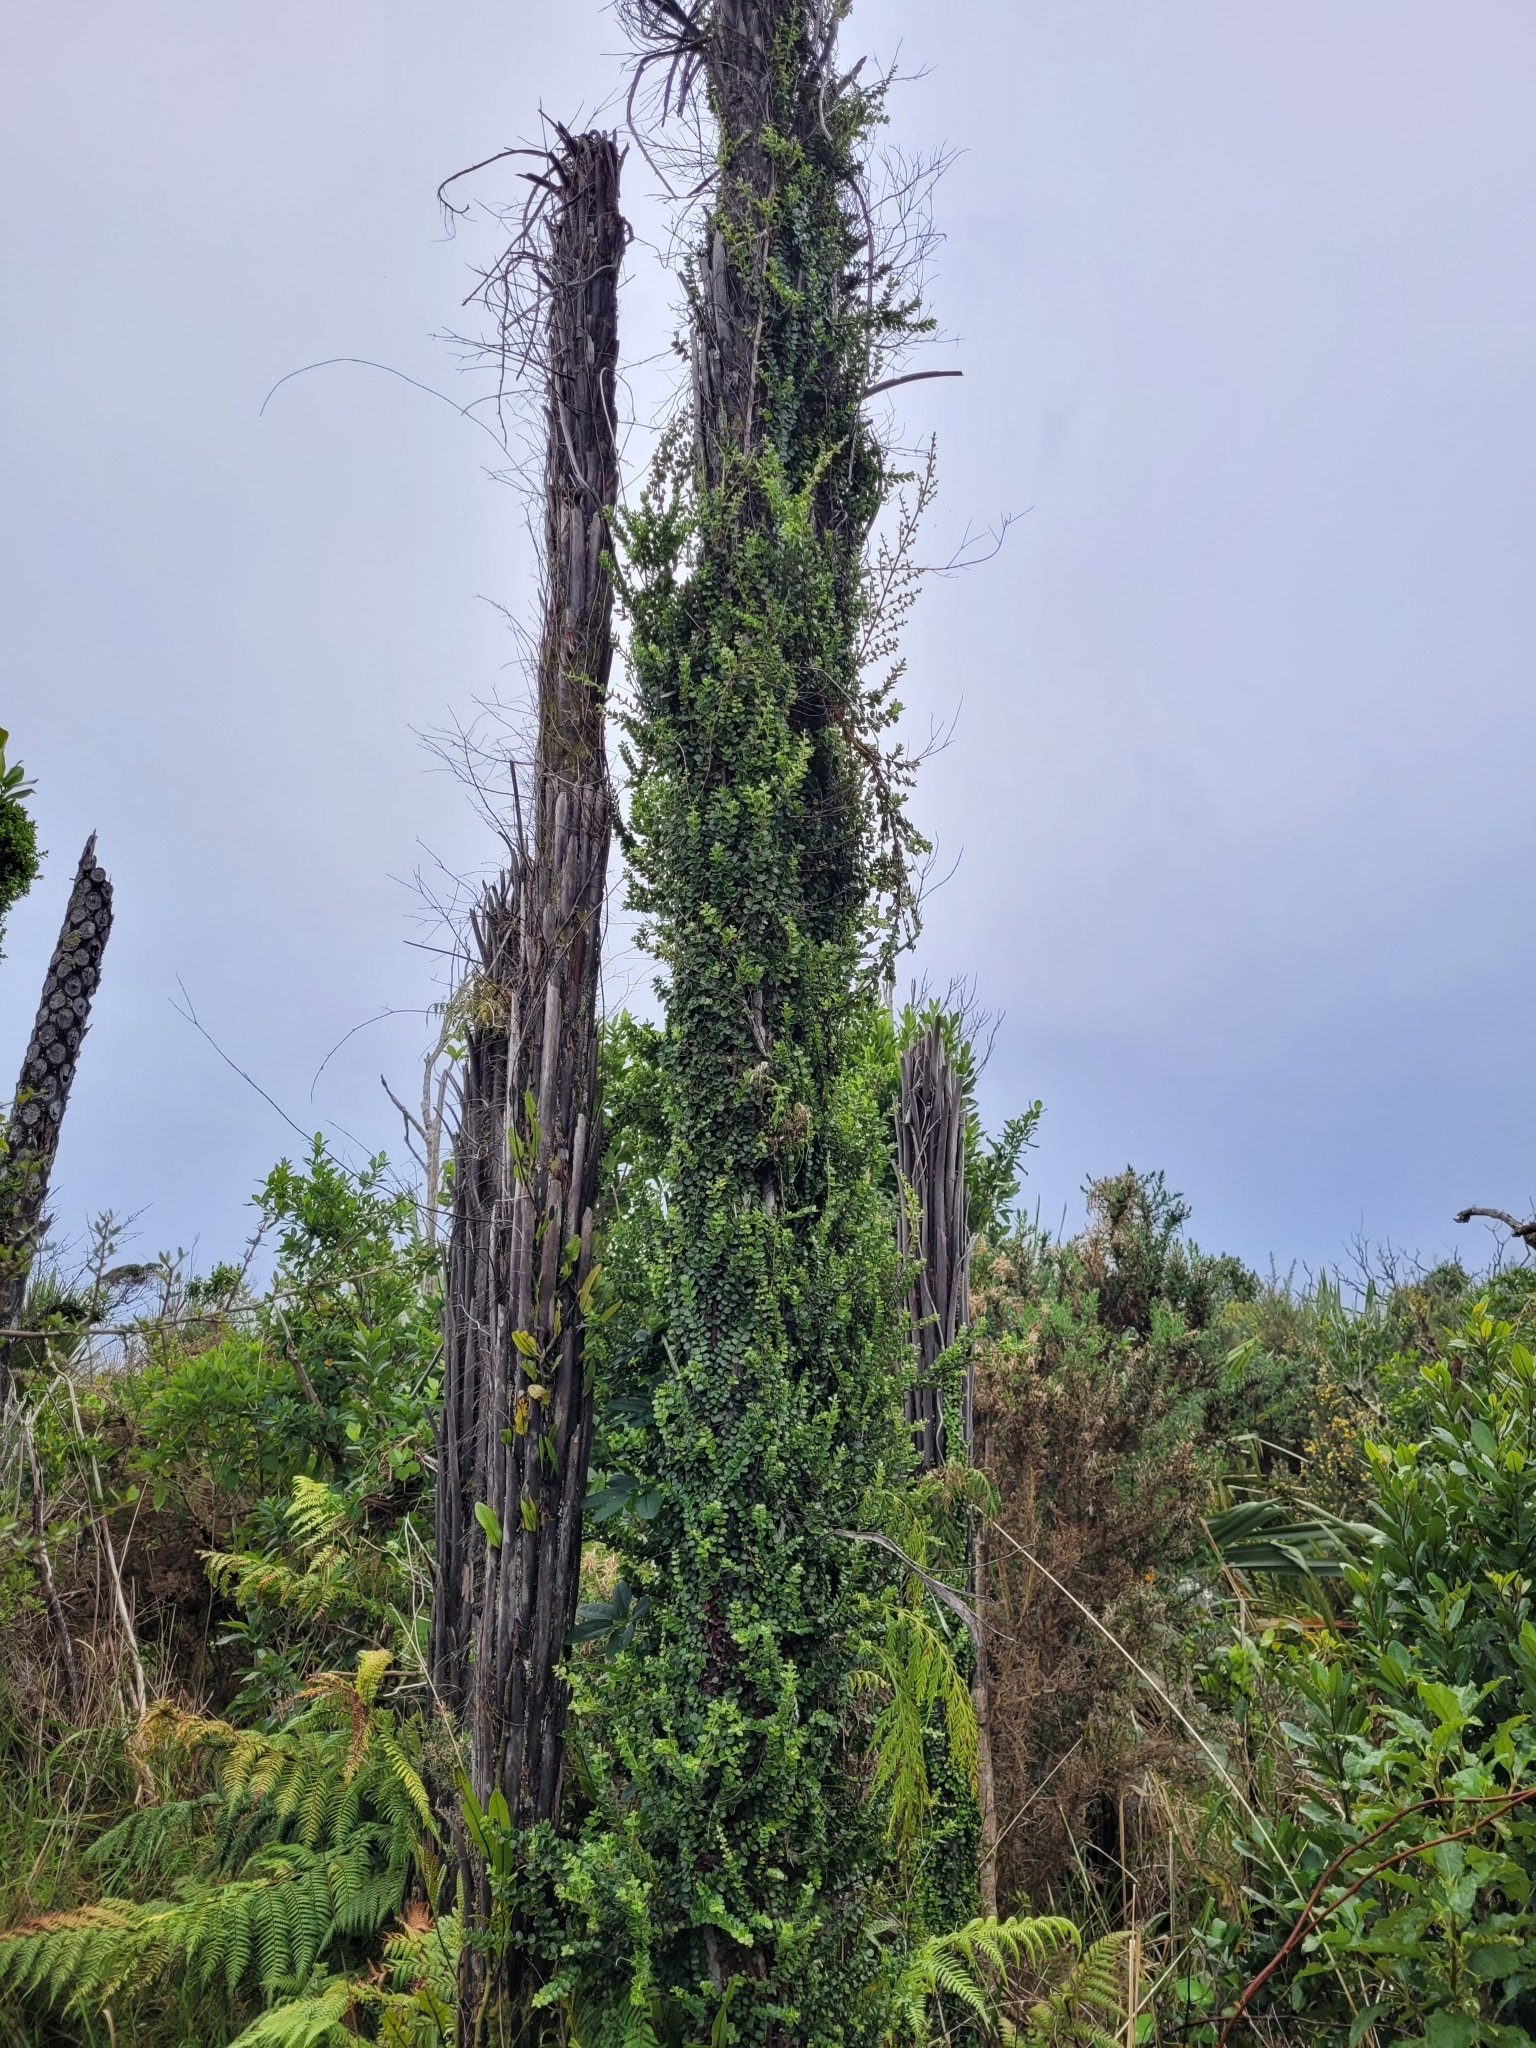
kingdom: Plantae
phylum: Tracheophyta
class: Magnoliopsida
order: Myrtales
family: Myrtaceae
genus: Metrosideros
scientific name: Metrosideros perforata
